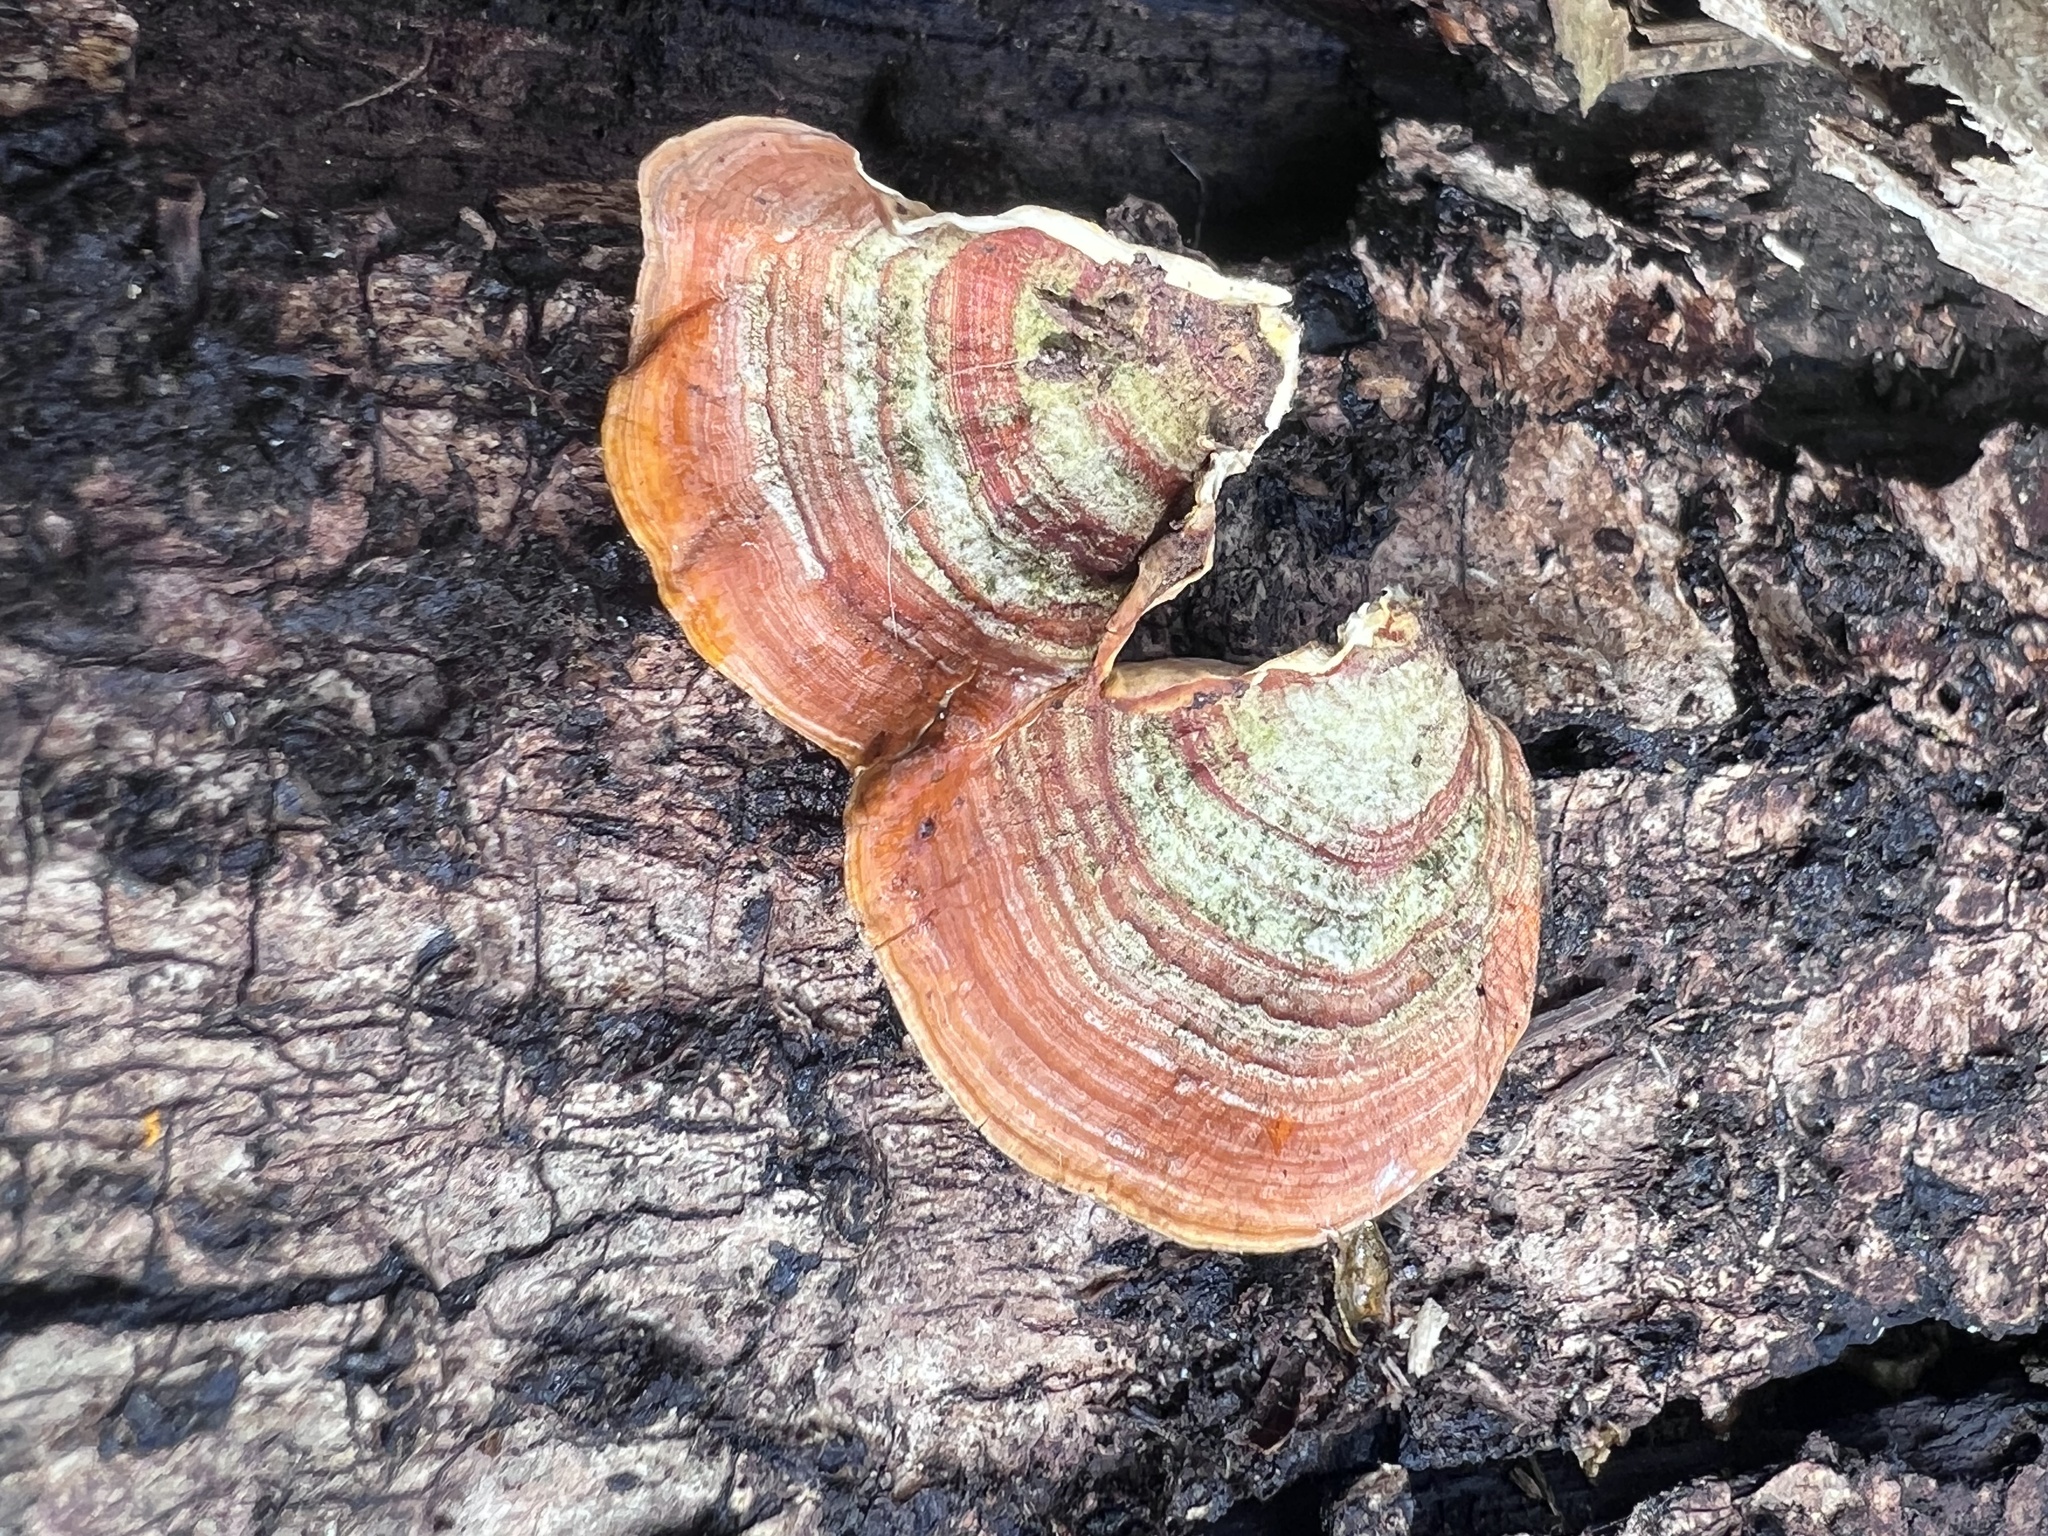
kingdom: Fungi
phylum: Basidiomycota
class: Agaricomycetes
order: Russulales
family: Stereaceae
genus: Stereum
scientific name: Stereum lobatum
